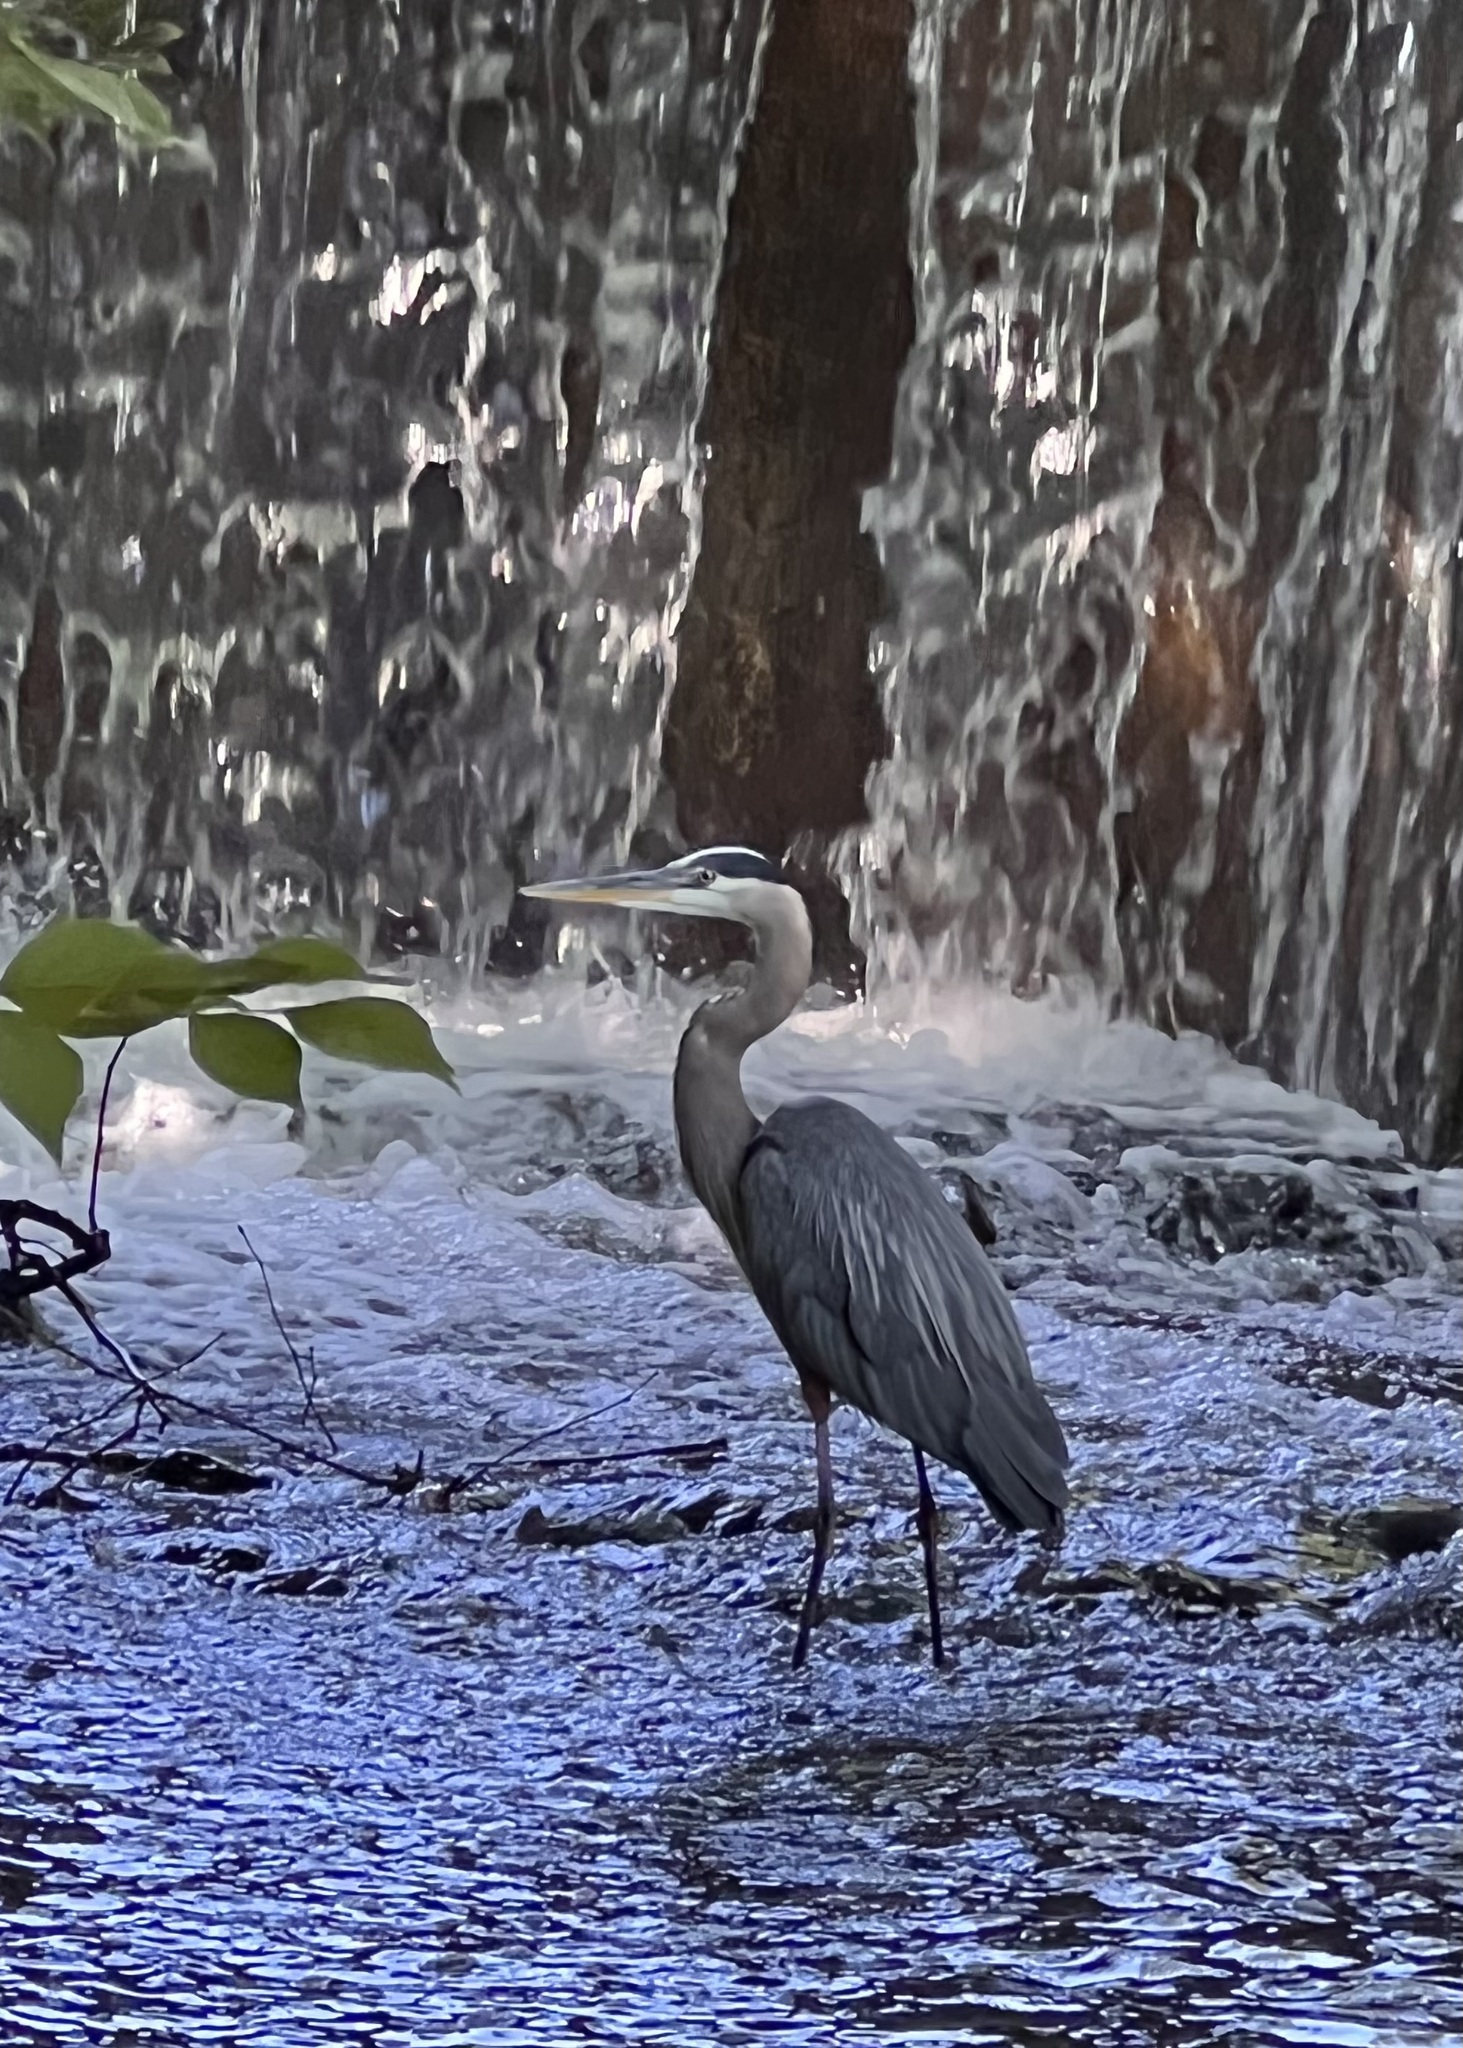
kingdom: Animalia
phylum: Chordata
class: Aves
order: Pelecaniformes
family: Ardeidae
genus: Ardea
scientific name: Ardea herodias
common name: Great blue heron
